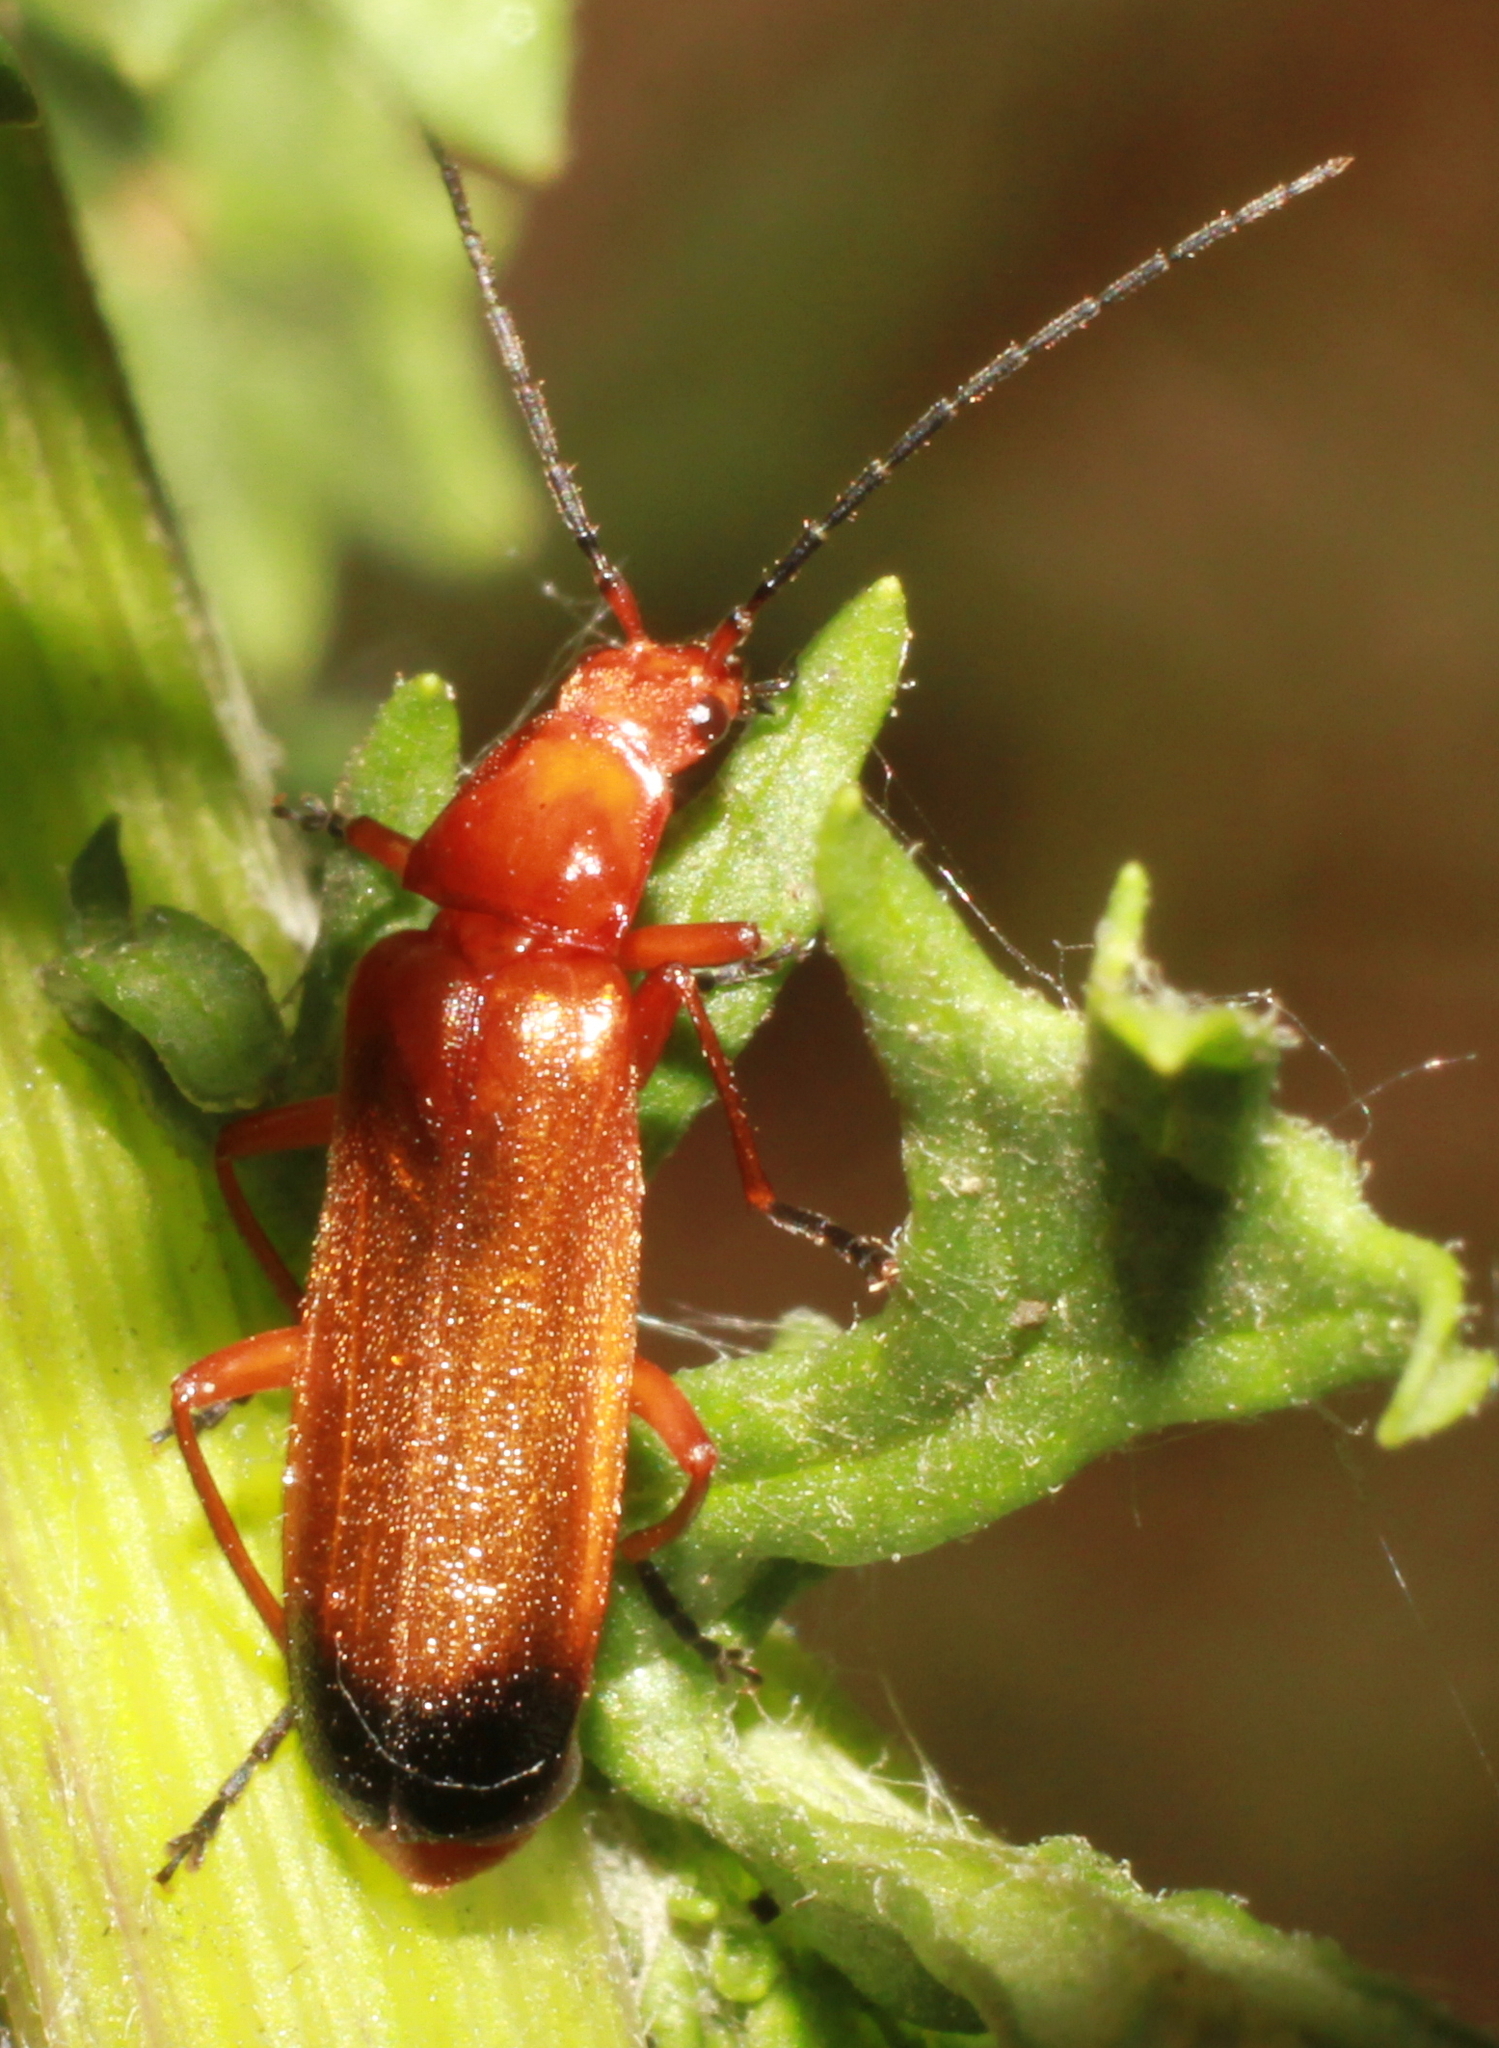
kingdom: Animalia
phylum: Arthropoda
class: Insecta
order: Coleoptera
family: Cantharidae
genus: Rhagonycha
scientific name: Rhagonycha fulva
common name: Common red soldier beetle
